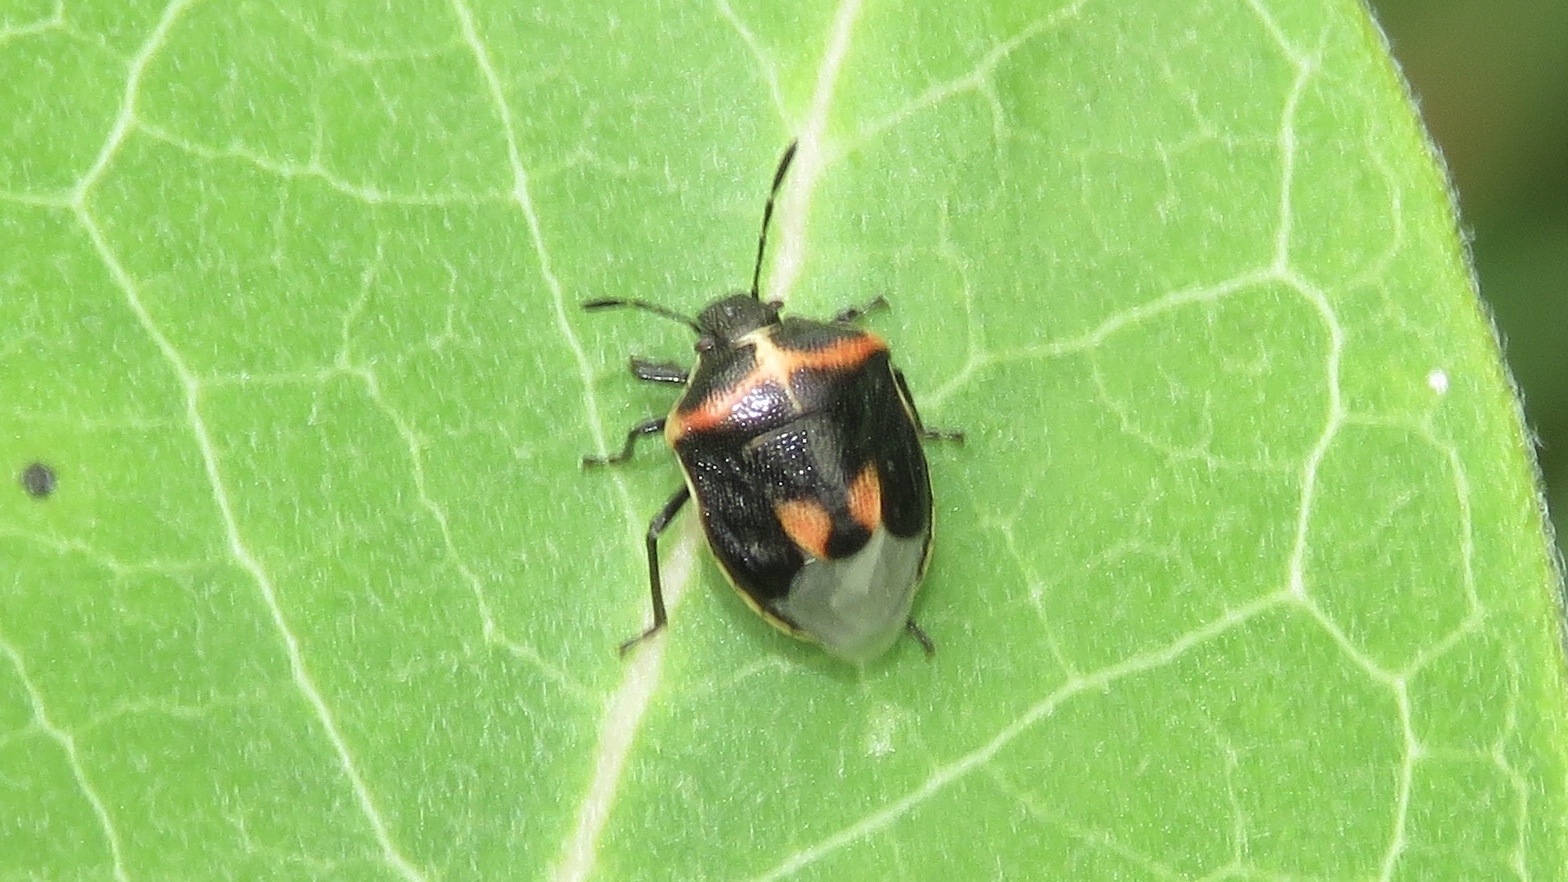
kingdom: Animalia
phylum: Arthropoda
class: Insecta
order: Hemiptera
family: Pentatomidae
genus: Cosmopepla
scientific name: Cosmopepla lintneriana
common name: Twice-stabbed stink bug
